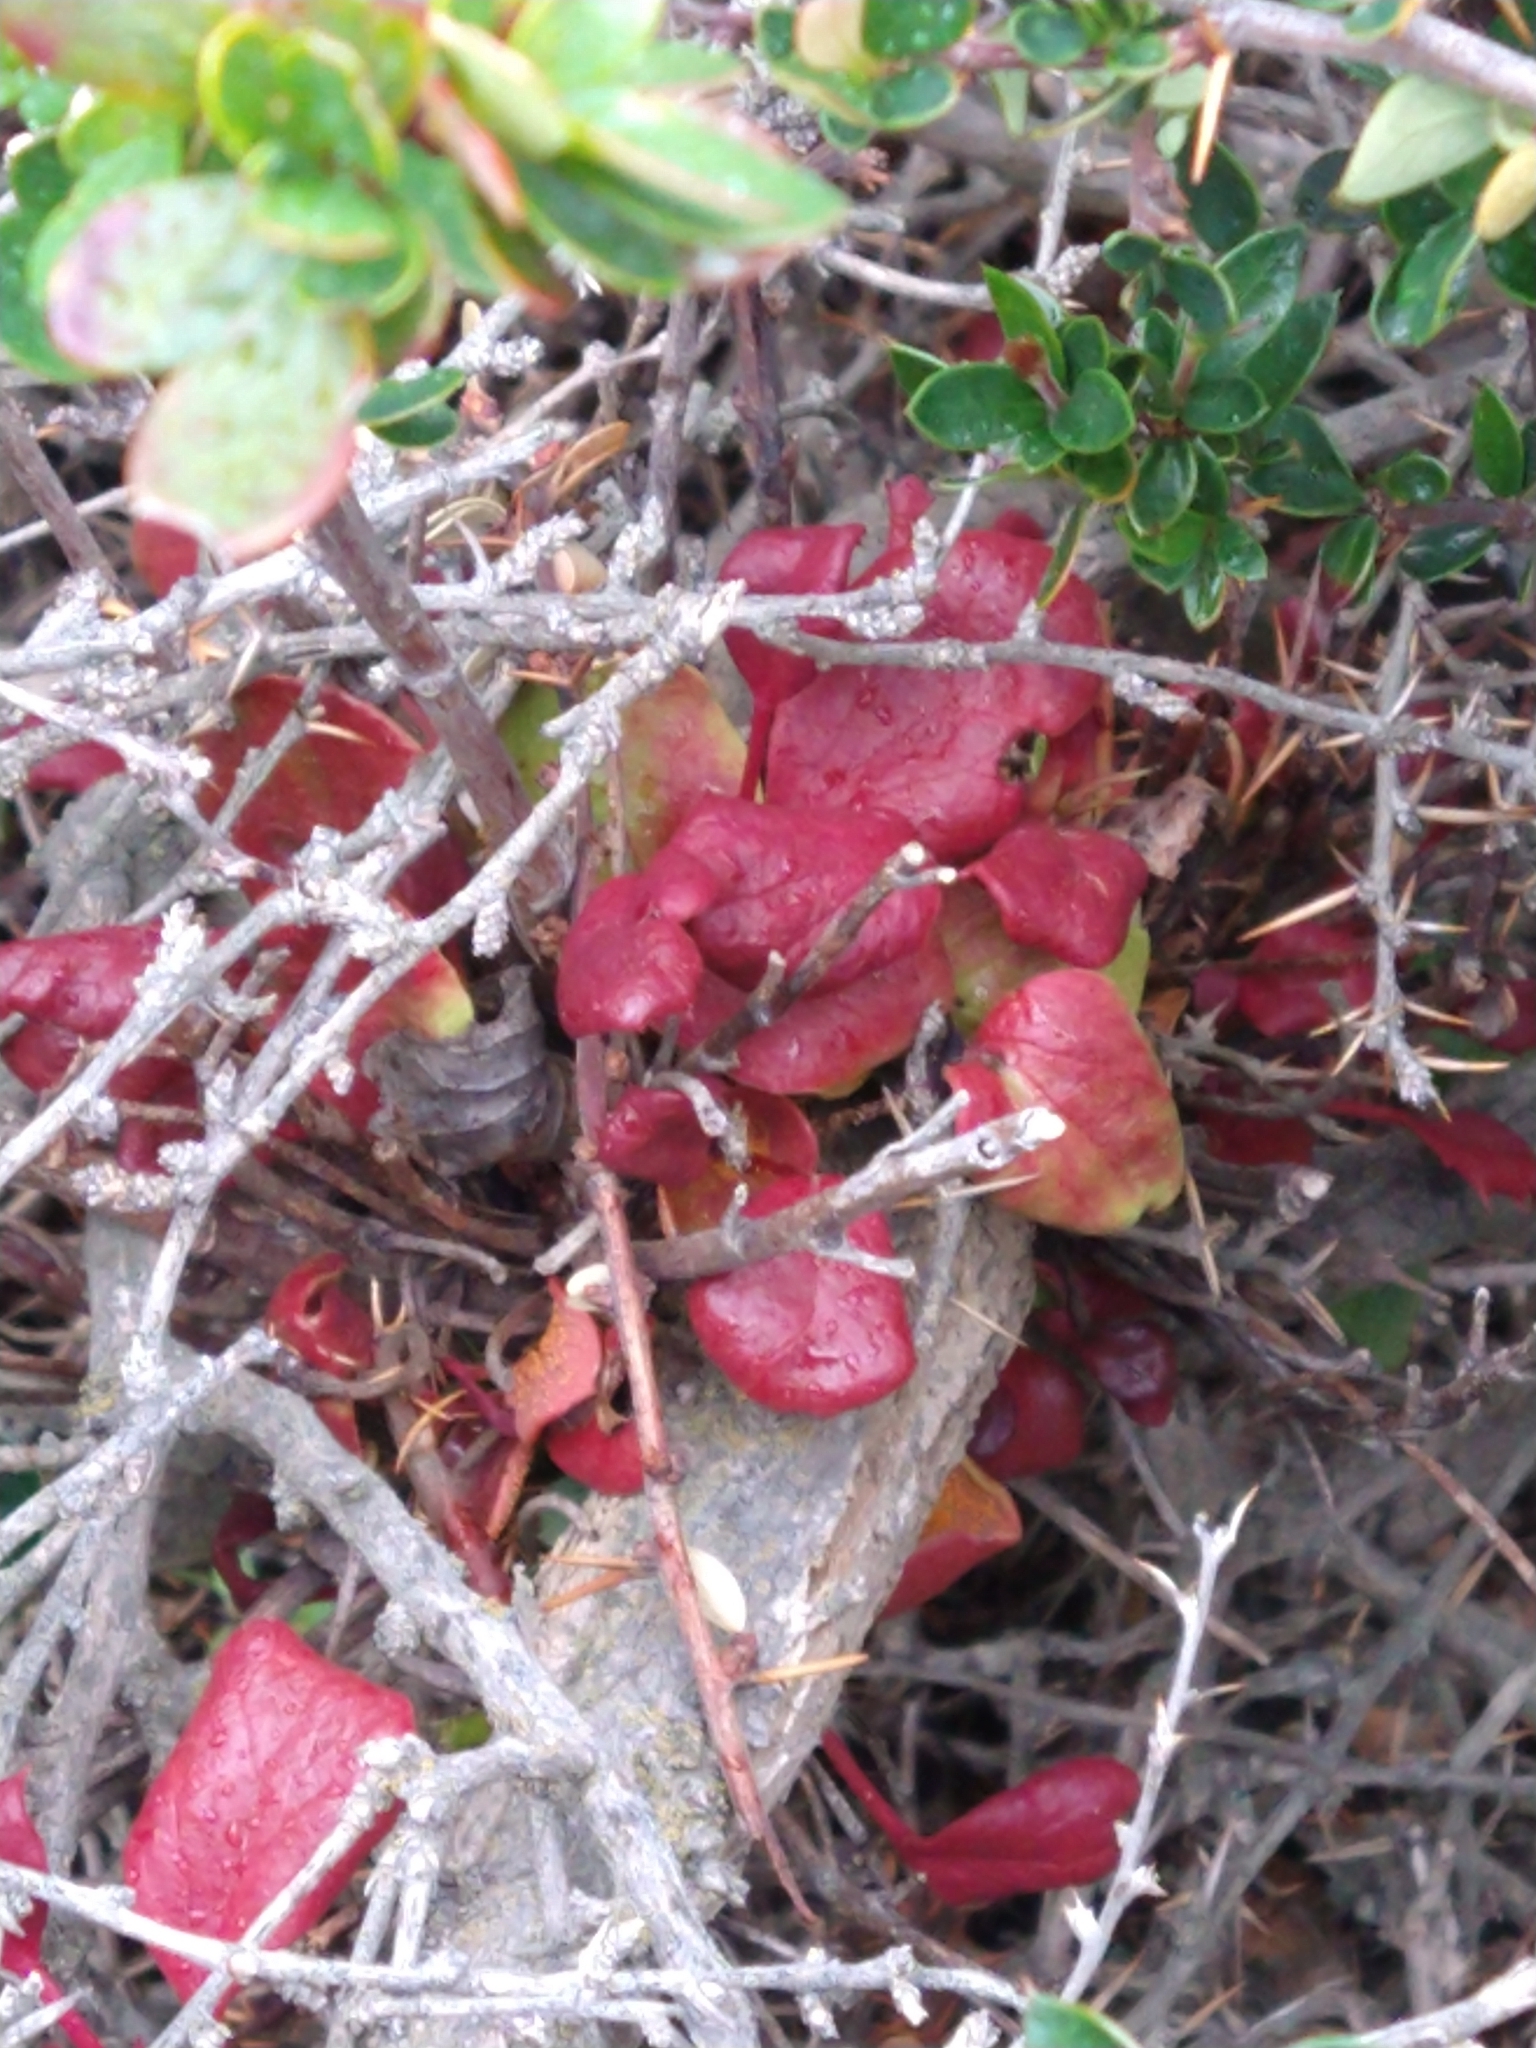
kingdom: Fungi
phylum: Basidiomycota
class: Pucciniomycetes
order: Pucciniales
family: Pucciniaceae
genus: Puccinia
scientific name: Puccinia magellanica
